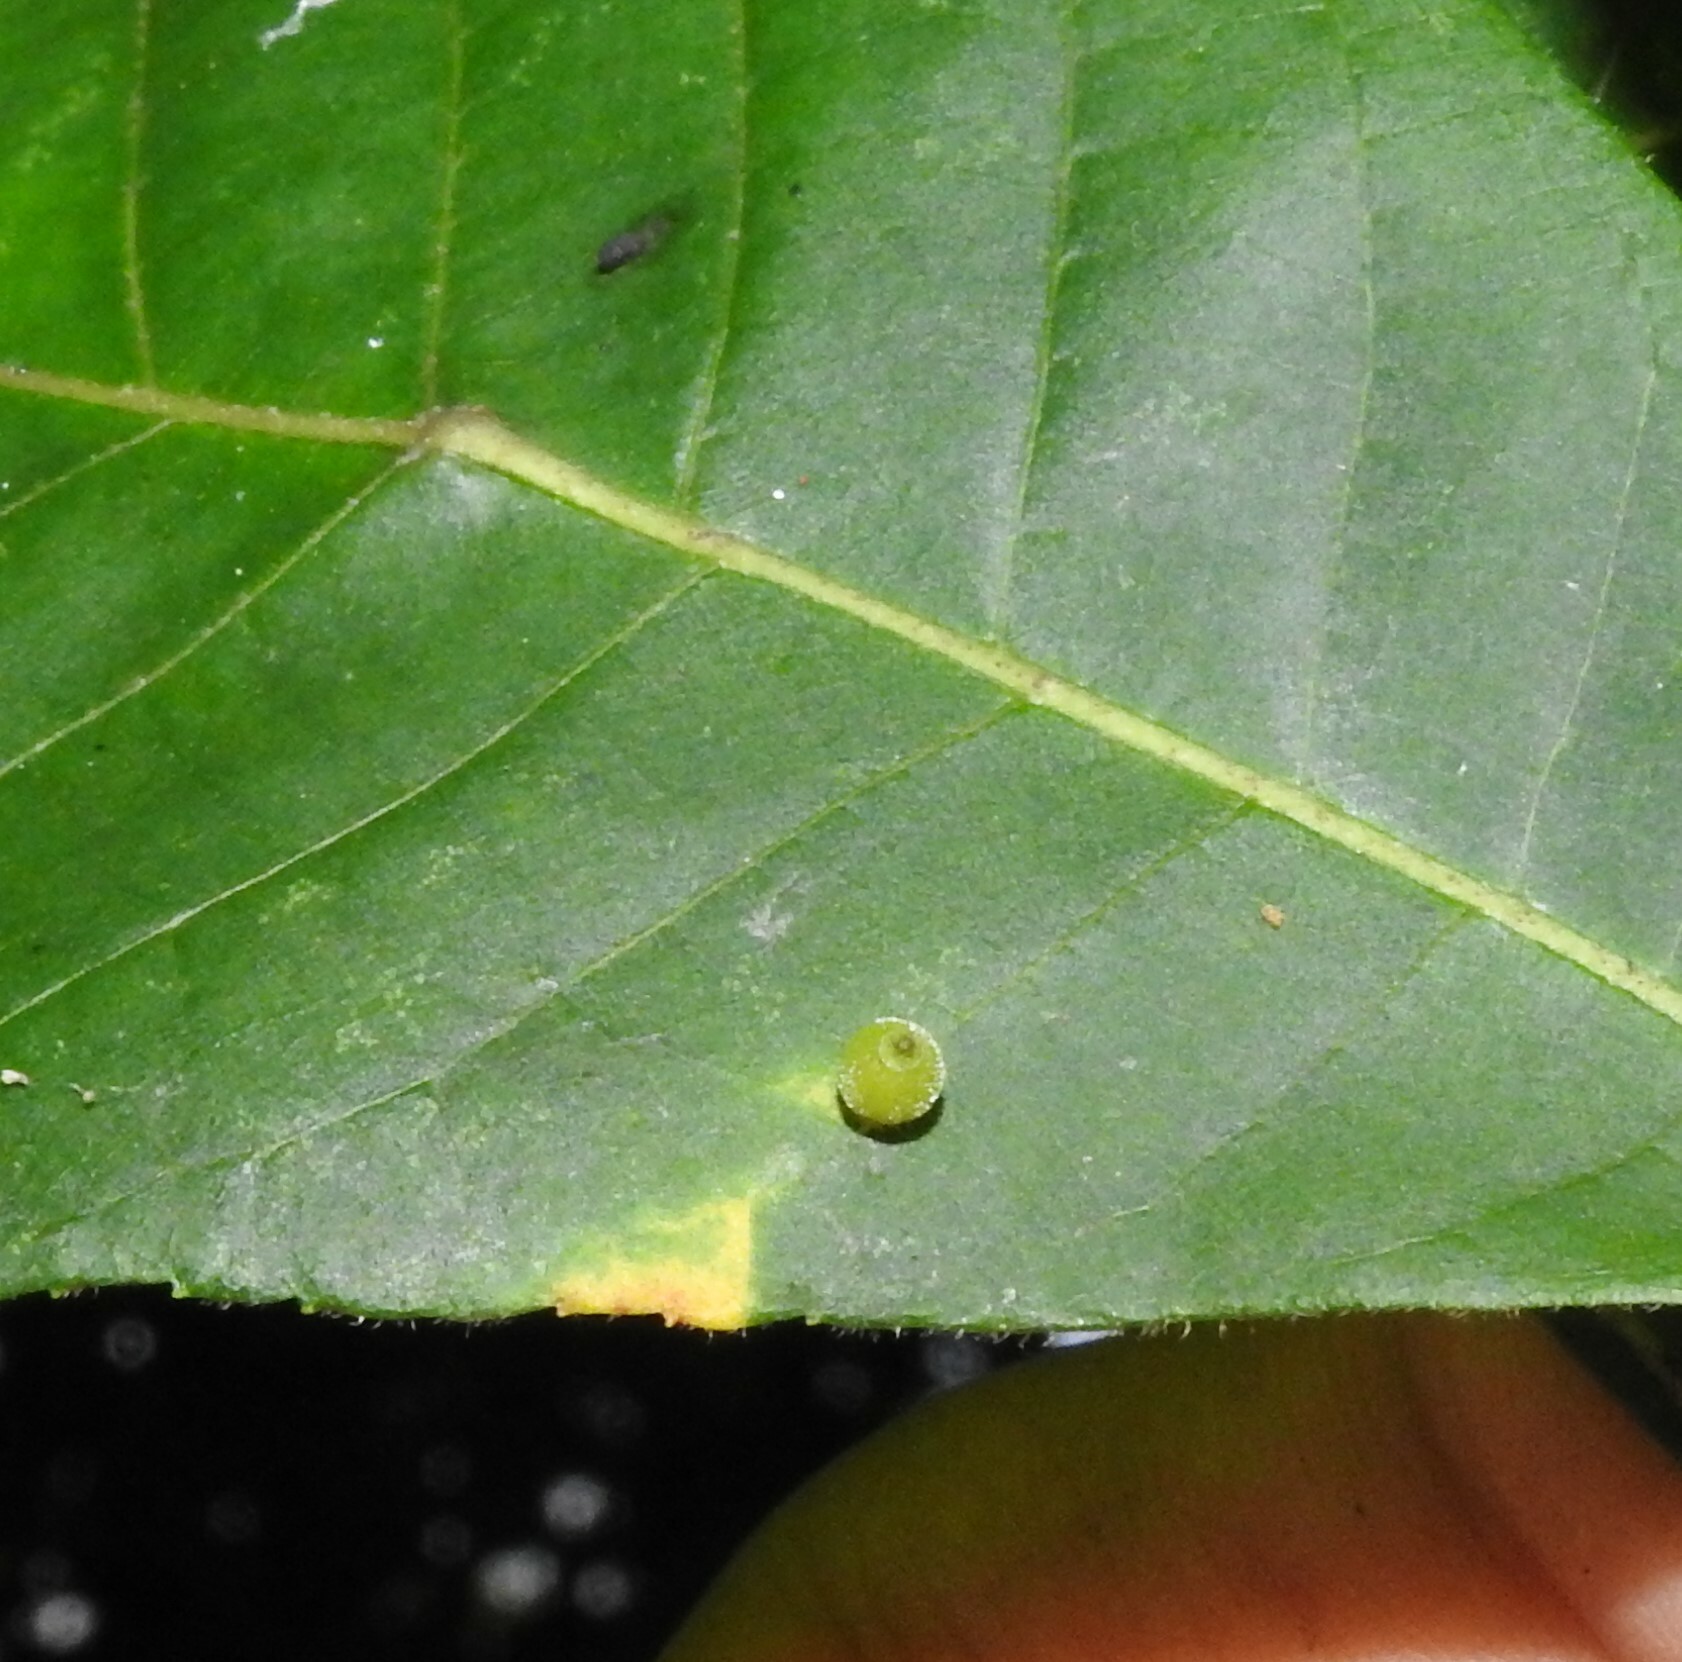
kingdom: Animalia
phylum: Arthropoda
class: Insecta
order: Diptera
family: Cecidomyiidae
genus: Caryomyia
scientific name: Caryomyia viscidolium
